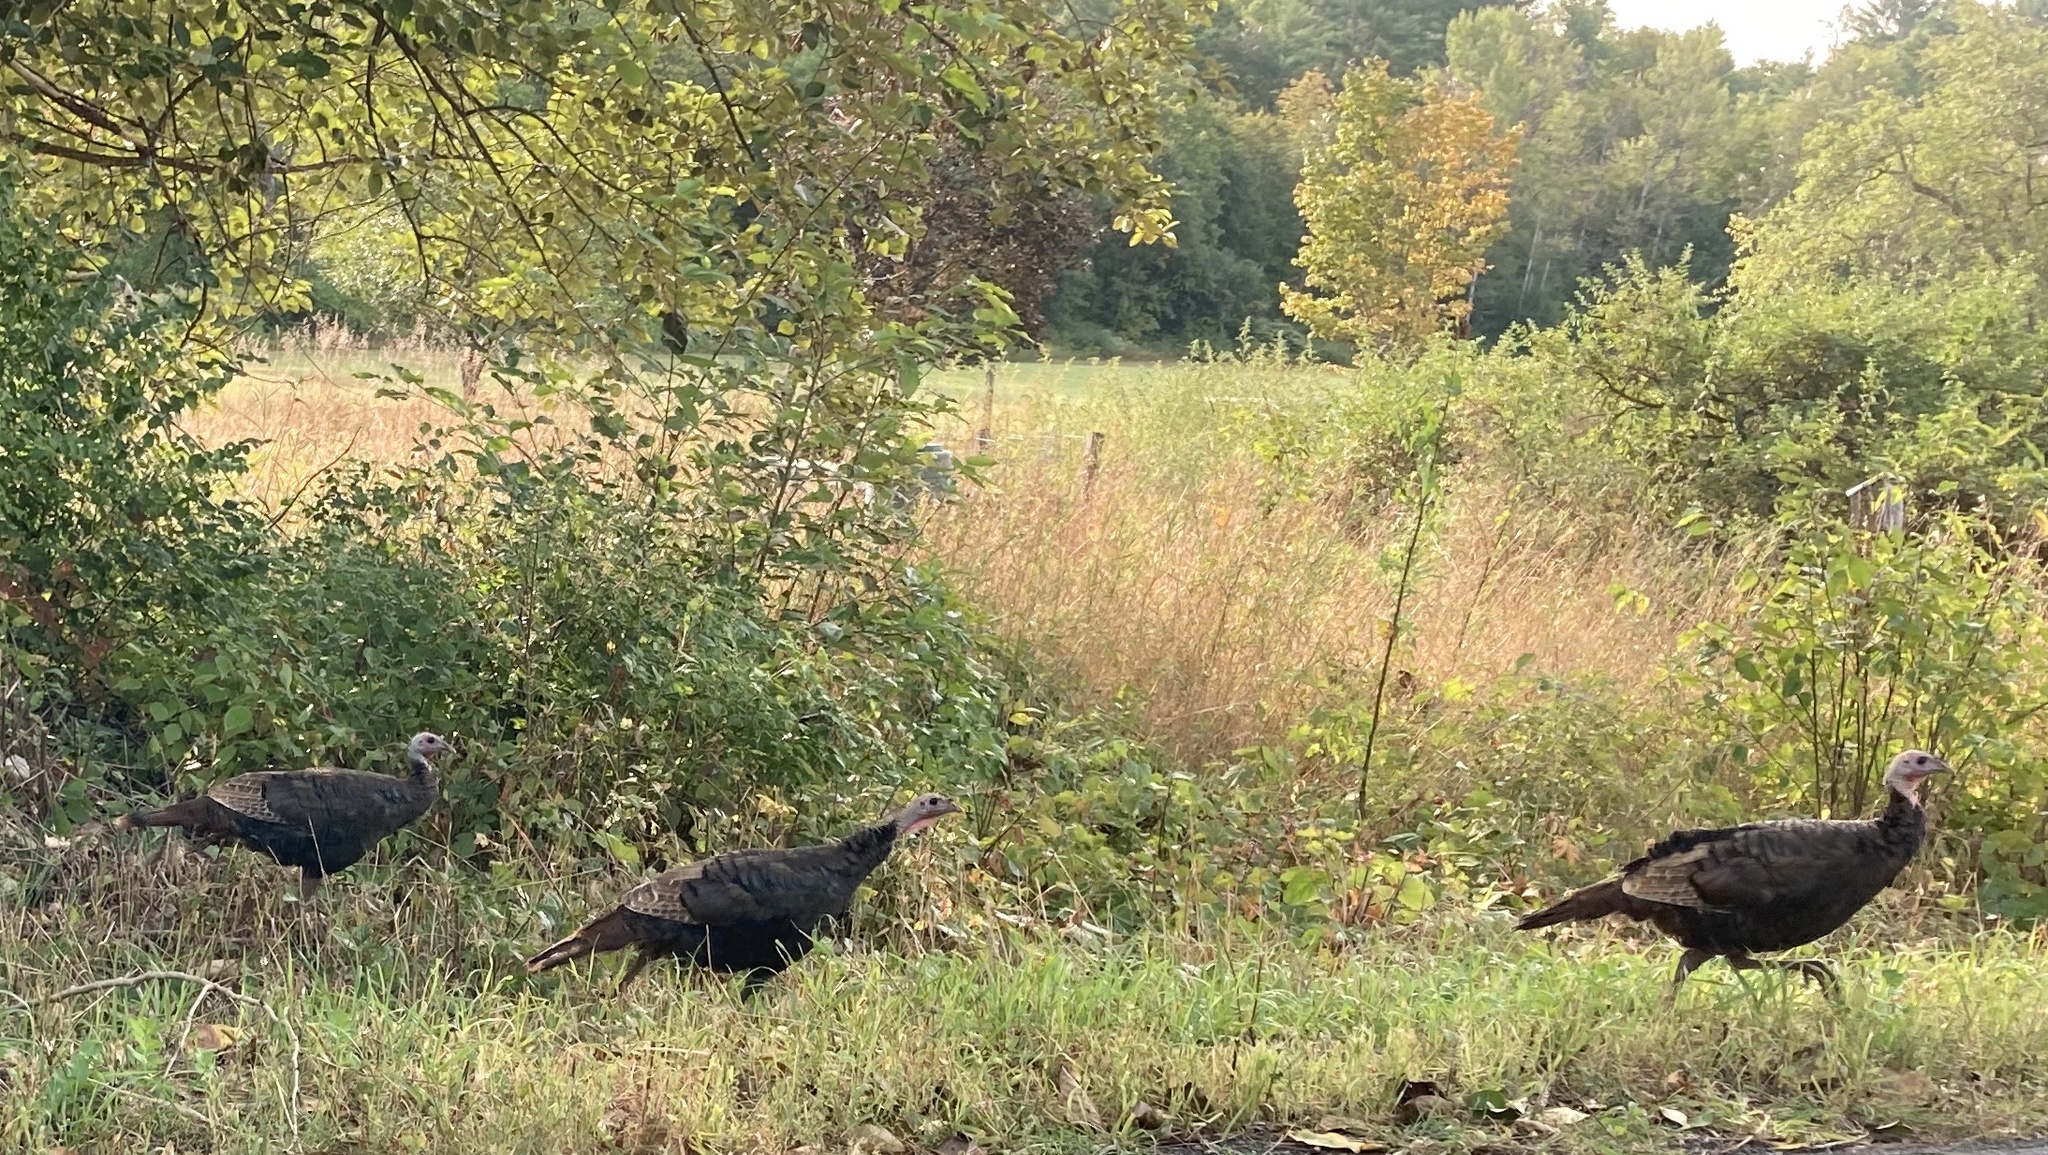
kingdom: Animalia
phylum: Chordata
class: Aves
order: Galliformes
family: Phasianidae
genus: Meleagris
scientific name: Meleagris gallopavo
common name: Wild turkey
